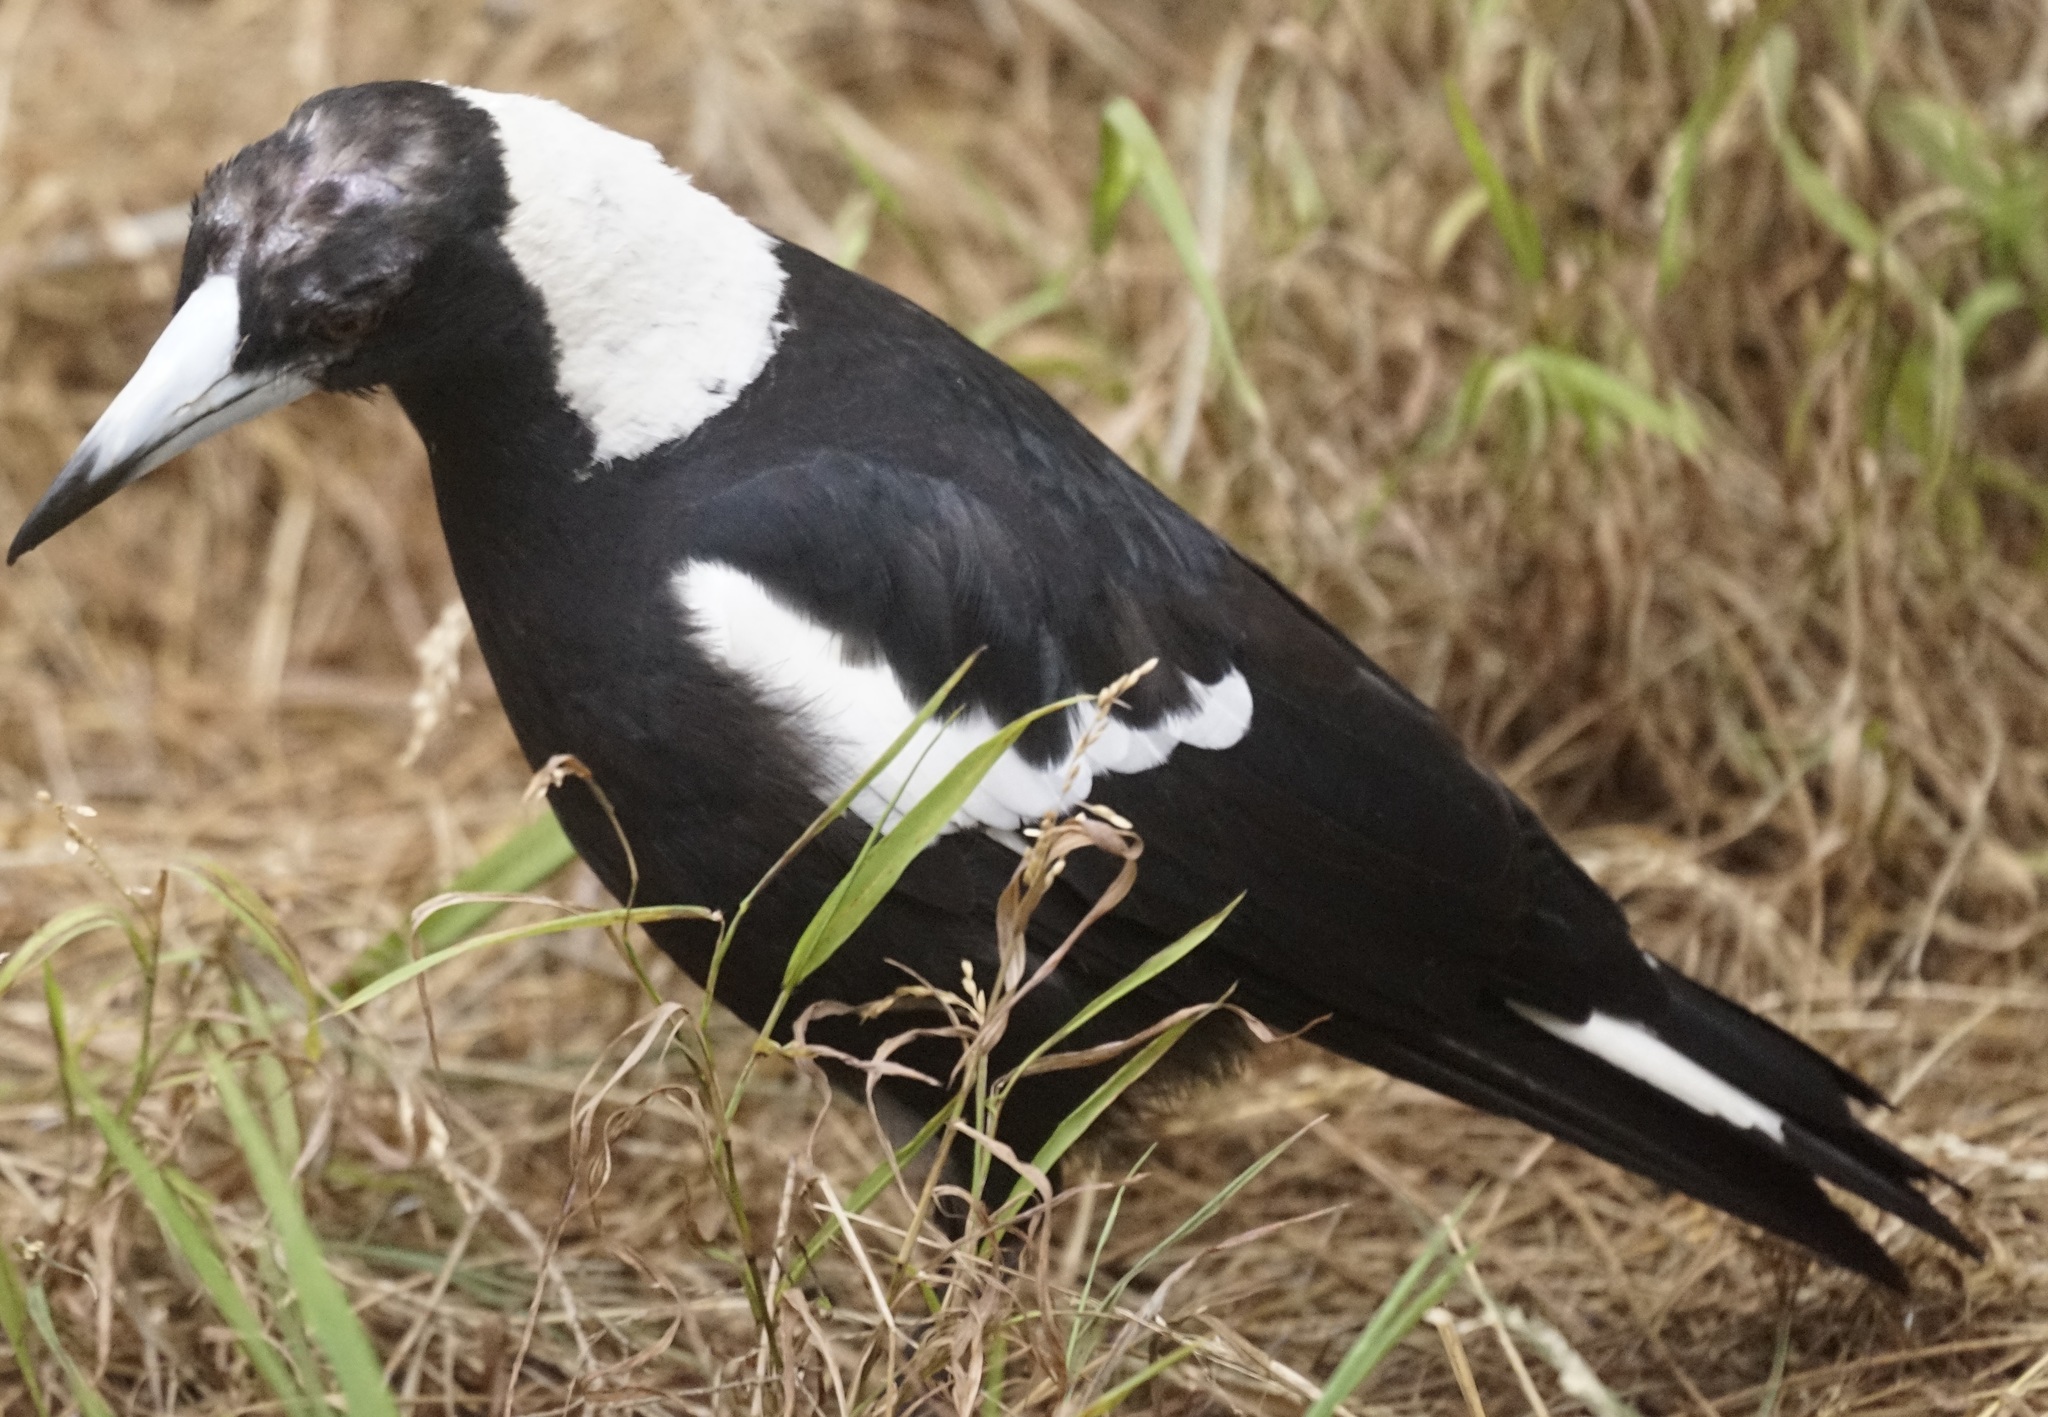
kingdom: Animalia
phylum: Chordata
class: Aves
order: Passeriformes
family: Cracticidae
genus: Gymnorhina
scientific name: Gymnorhina tibicen
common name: Australian magpie
